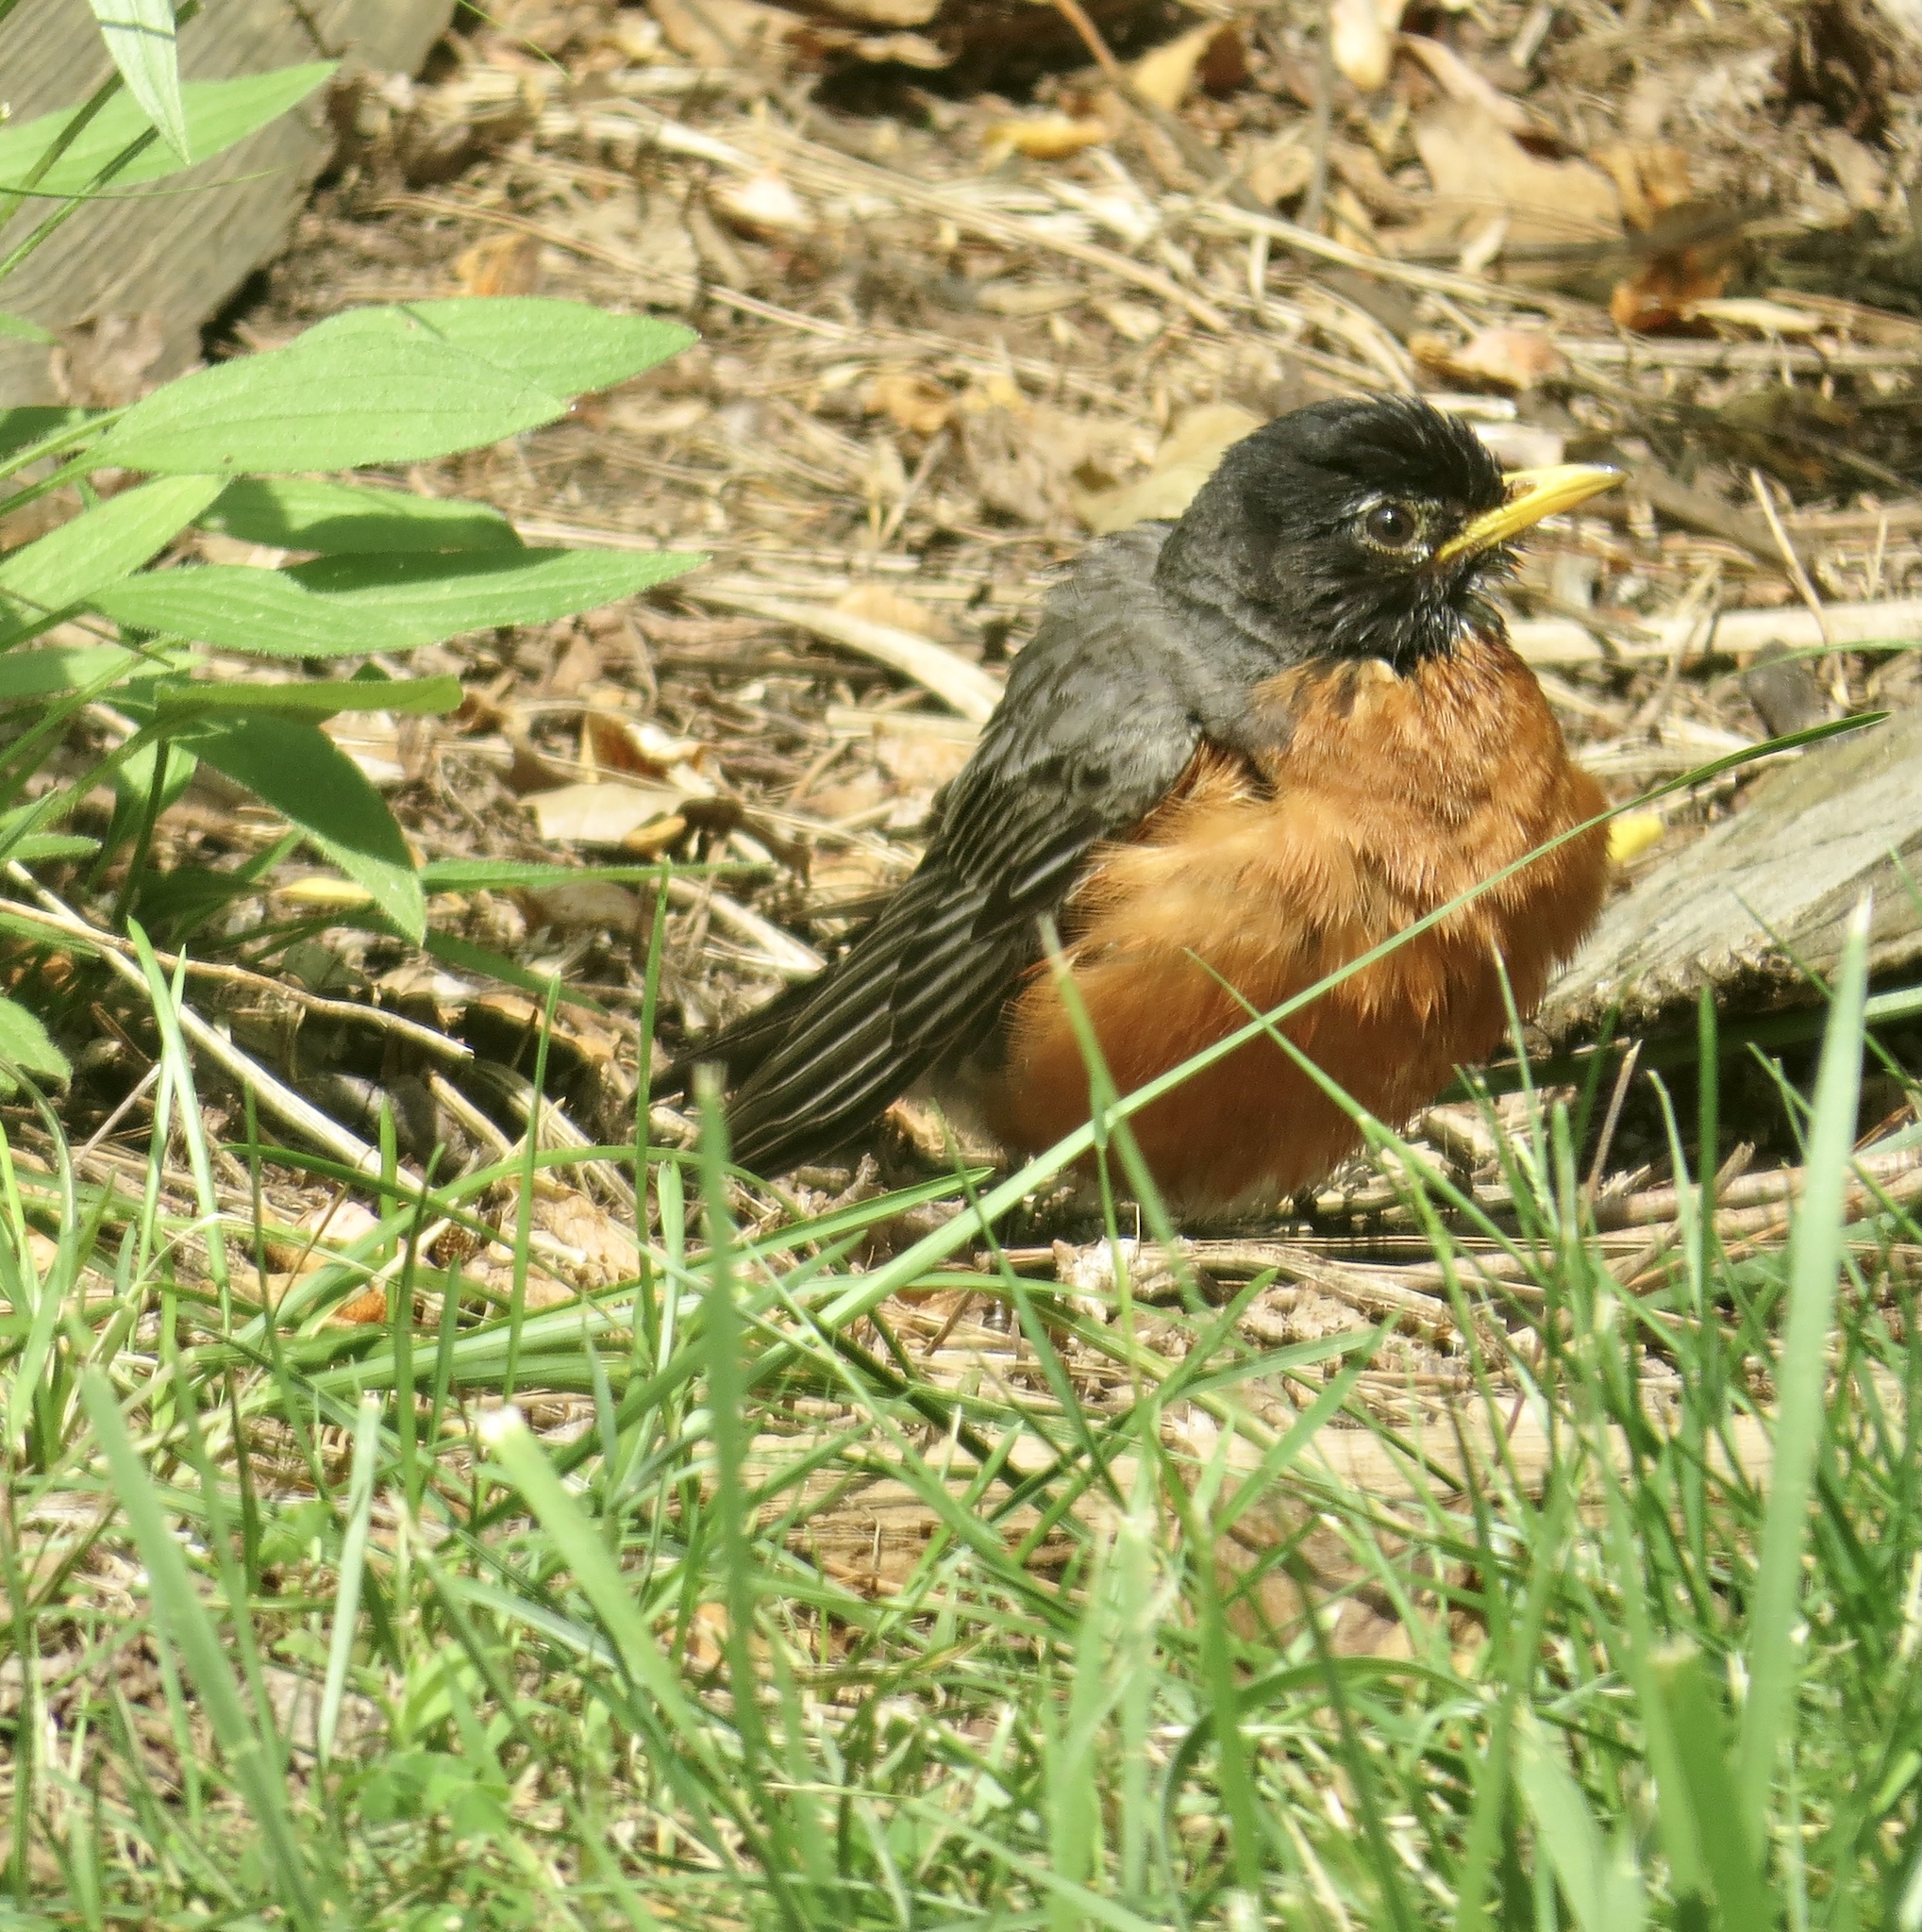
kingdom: Animalia
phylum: Chordata
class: Aves
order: Passeriformes
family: Turdidae
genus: Turdus
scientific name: Turdus migratorius
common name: American robin
